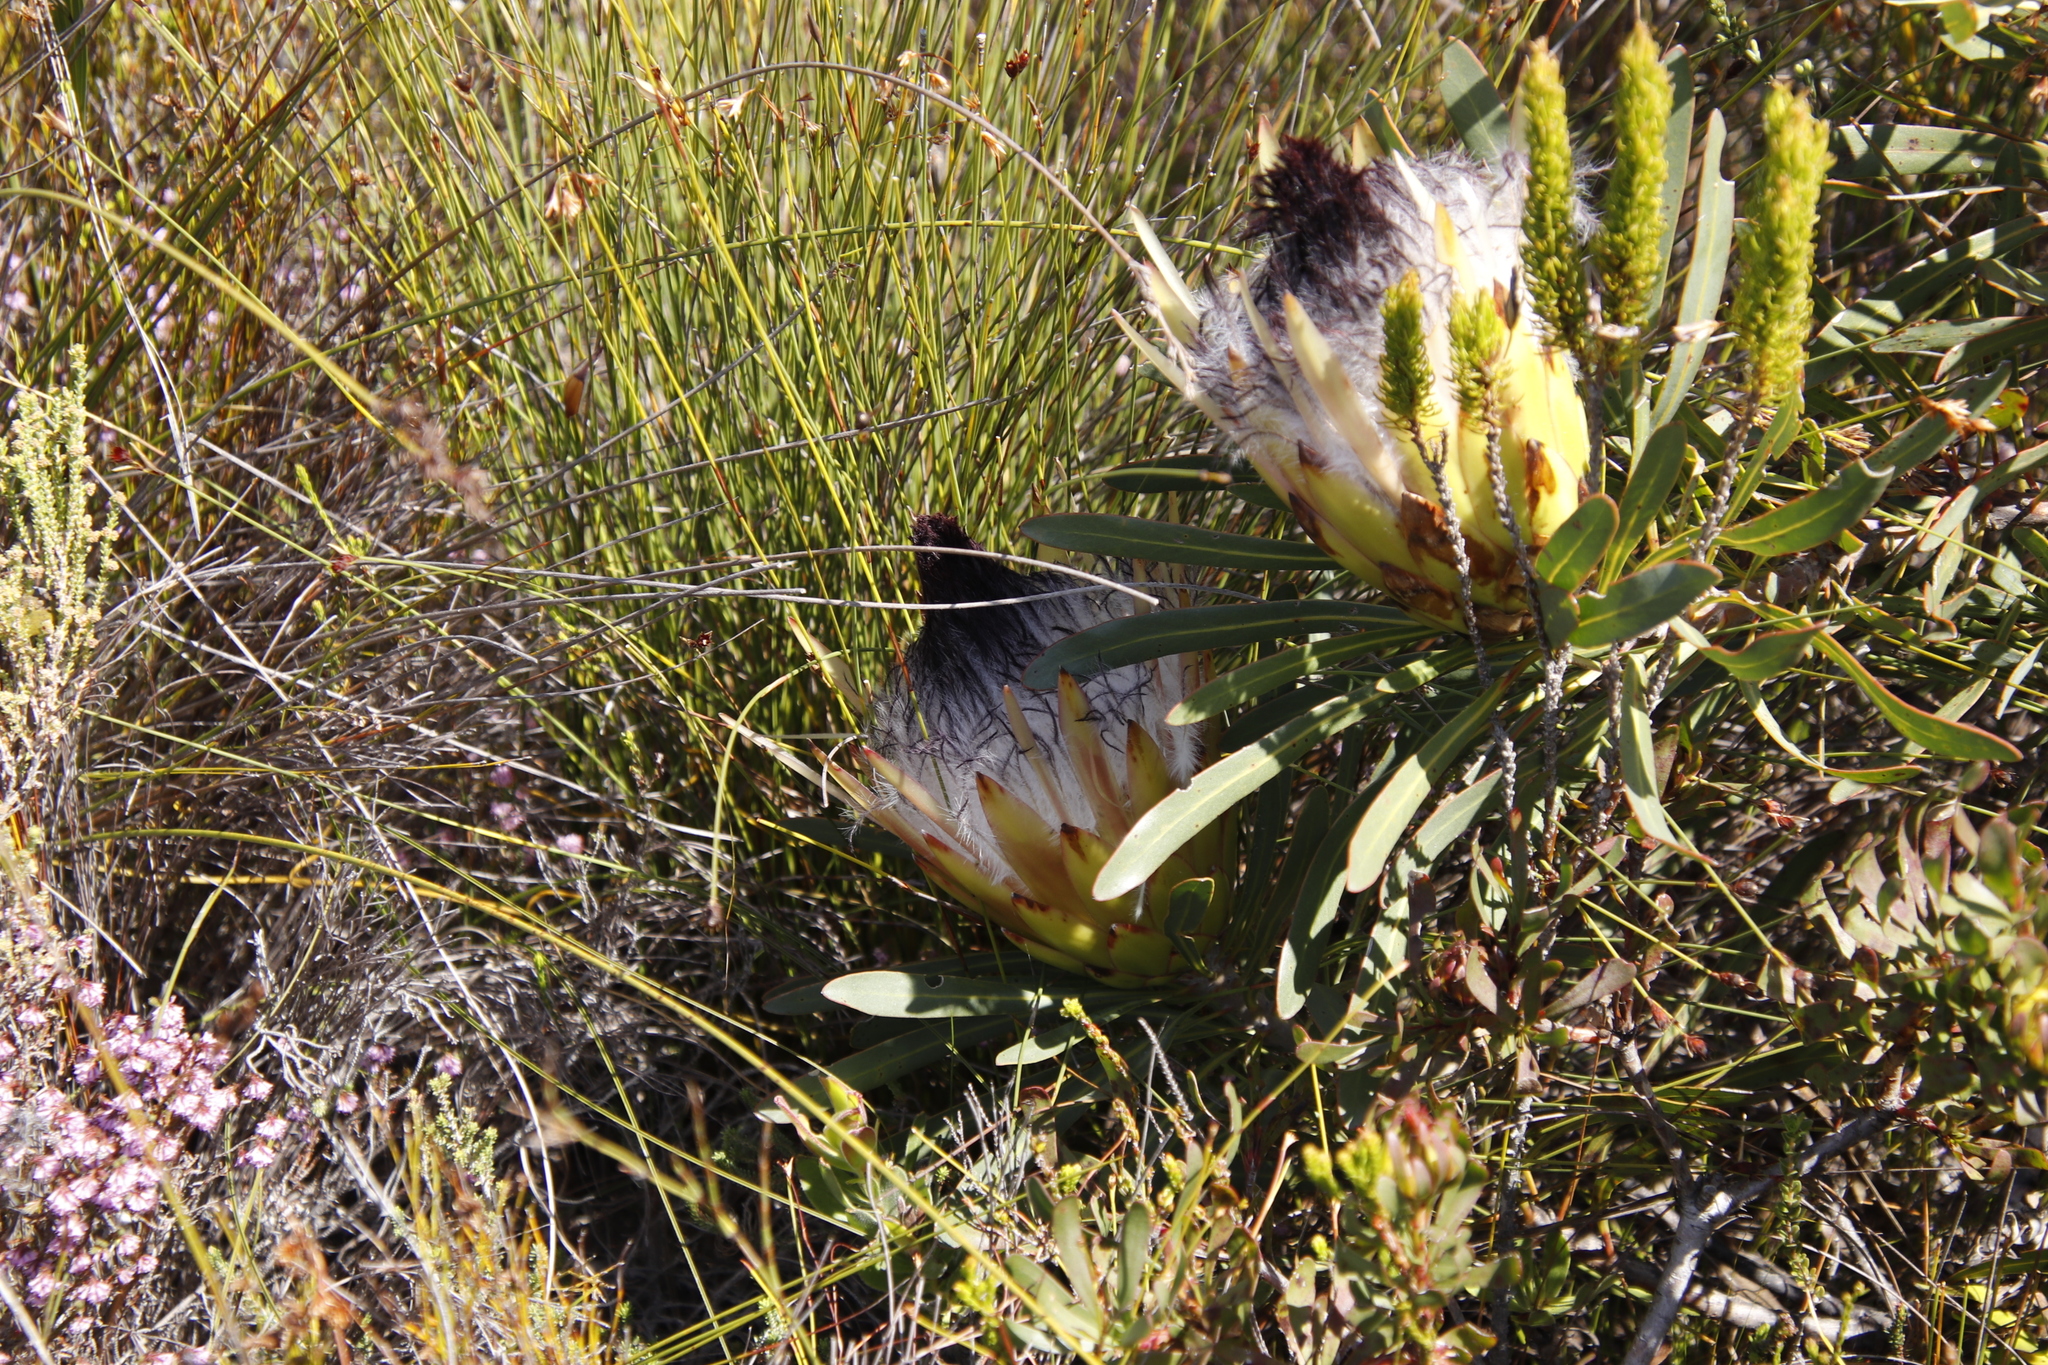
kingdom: Plantae
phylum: Tracheophyta
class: Magnoliopsida
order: Proteales
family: Proteaceae
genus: Protea
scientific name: Protea longifolia
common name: Long-leaf sugarbush
